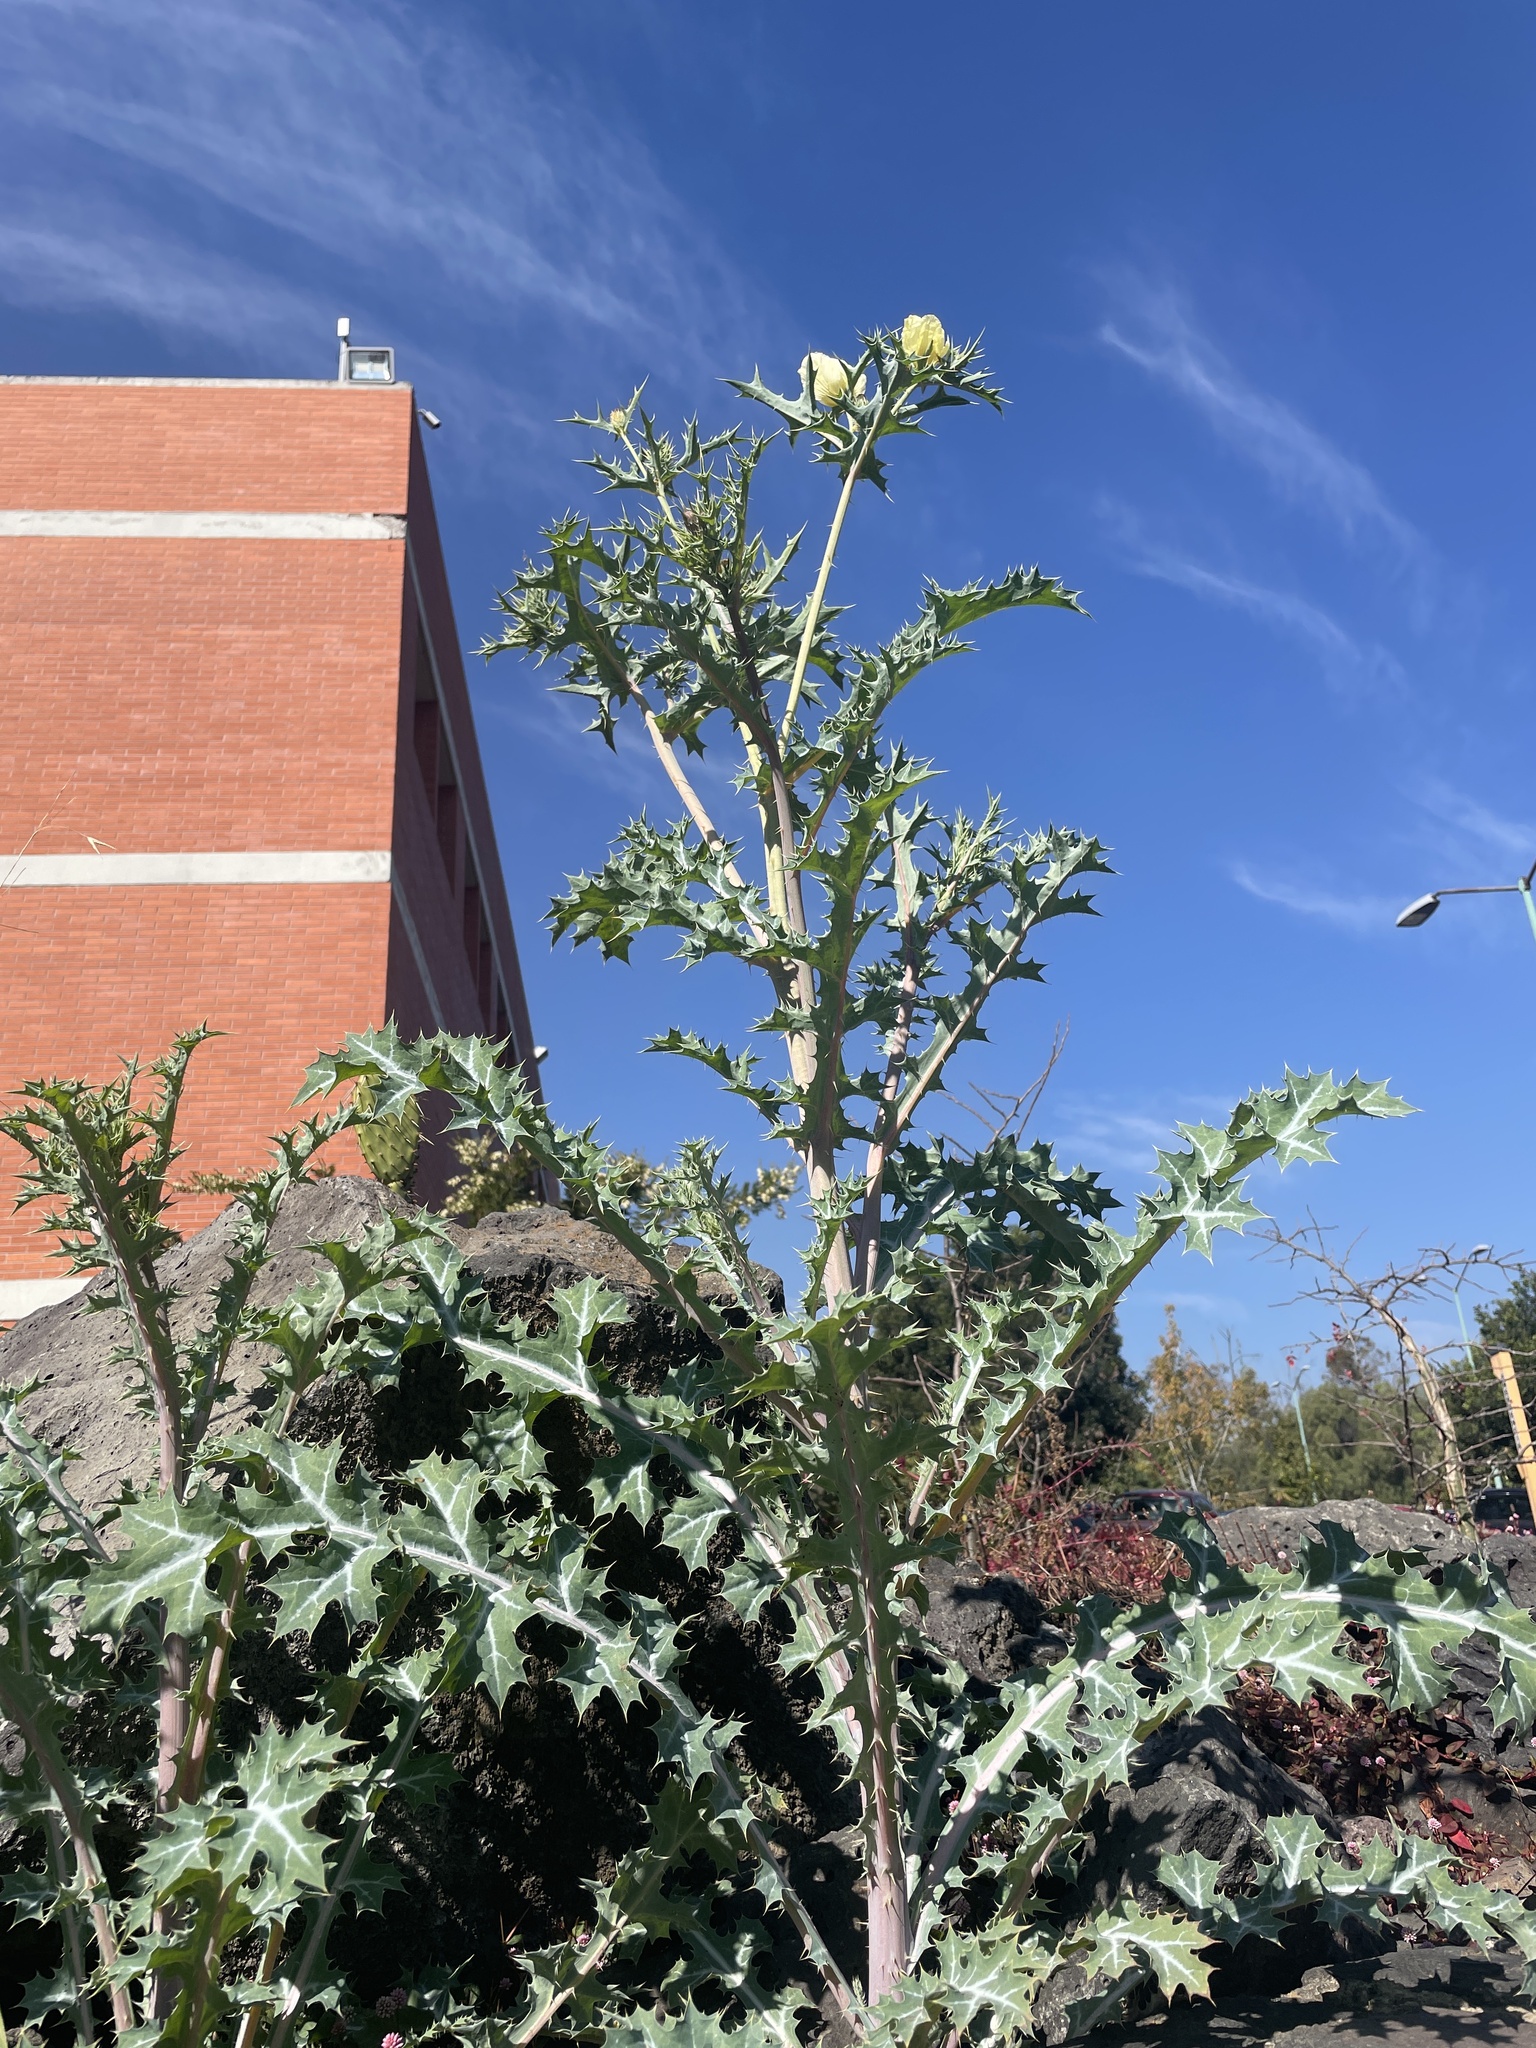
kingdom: Plantae
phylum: Tracheophyta
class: Magnoliopsida
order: Ranunculales
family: Papaveraceae
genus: Argemone
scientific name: Argemone ochroleuca
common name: White-flower mexican-poppy
